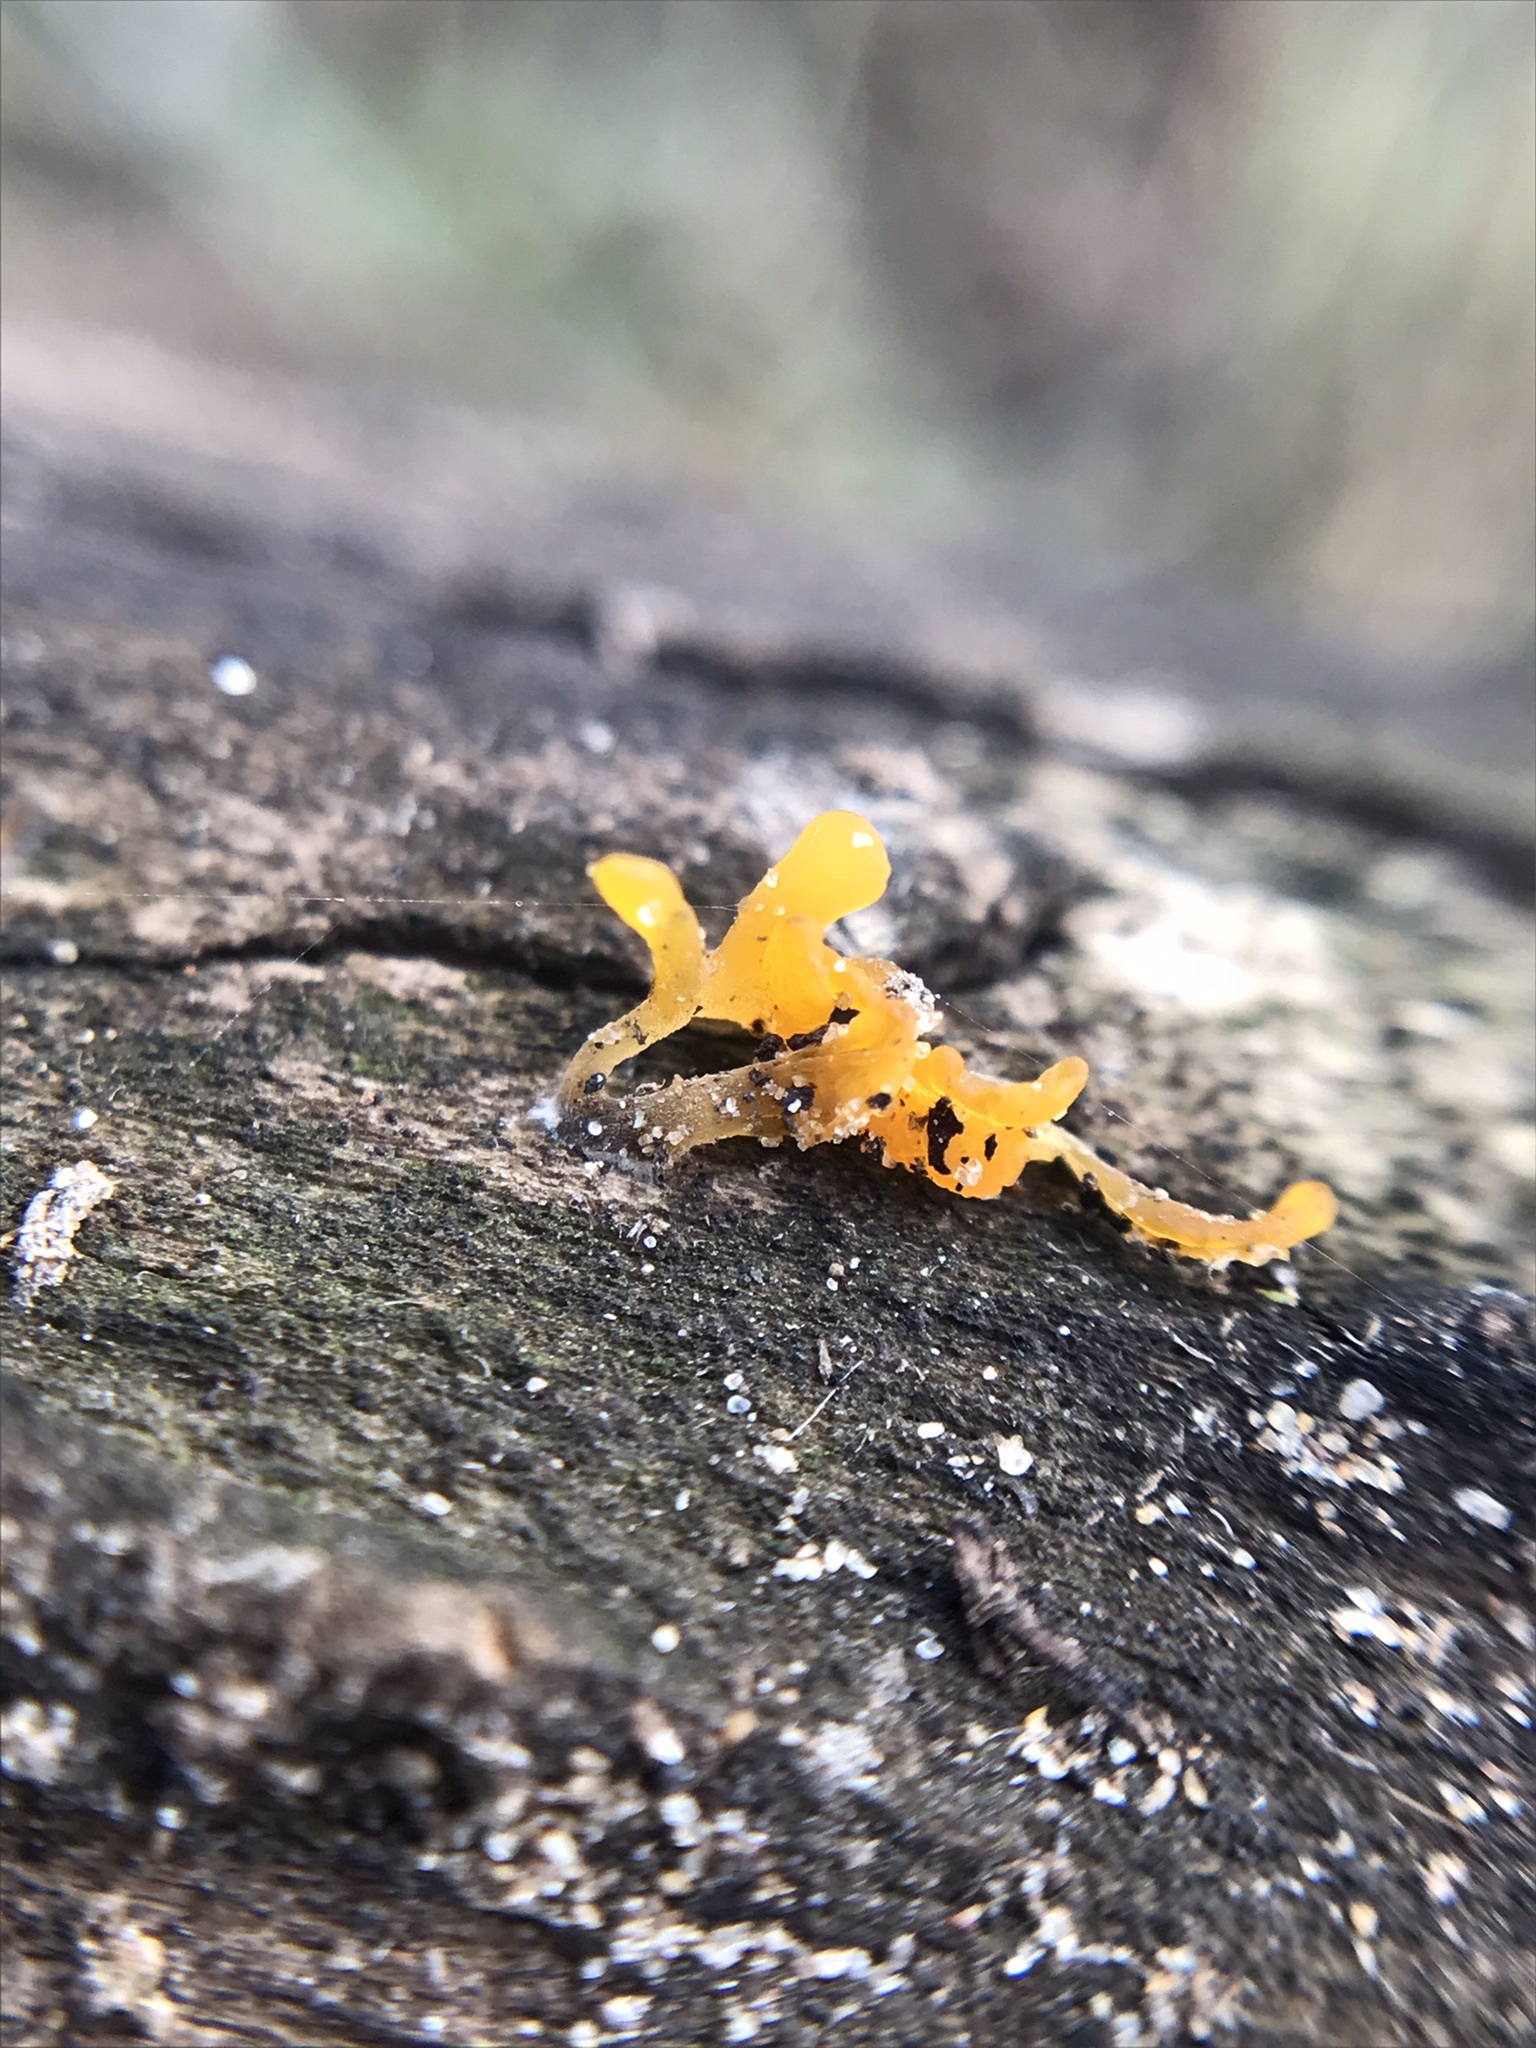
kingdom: Fungi
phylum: Basidiomycota
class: Dacrymycetes
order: Dacrymycetales
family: Dacrymycetaceae
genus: Dacrymyces
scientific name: Dacrymyces spathularius
